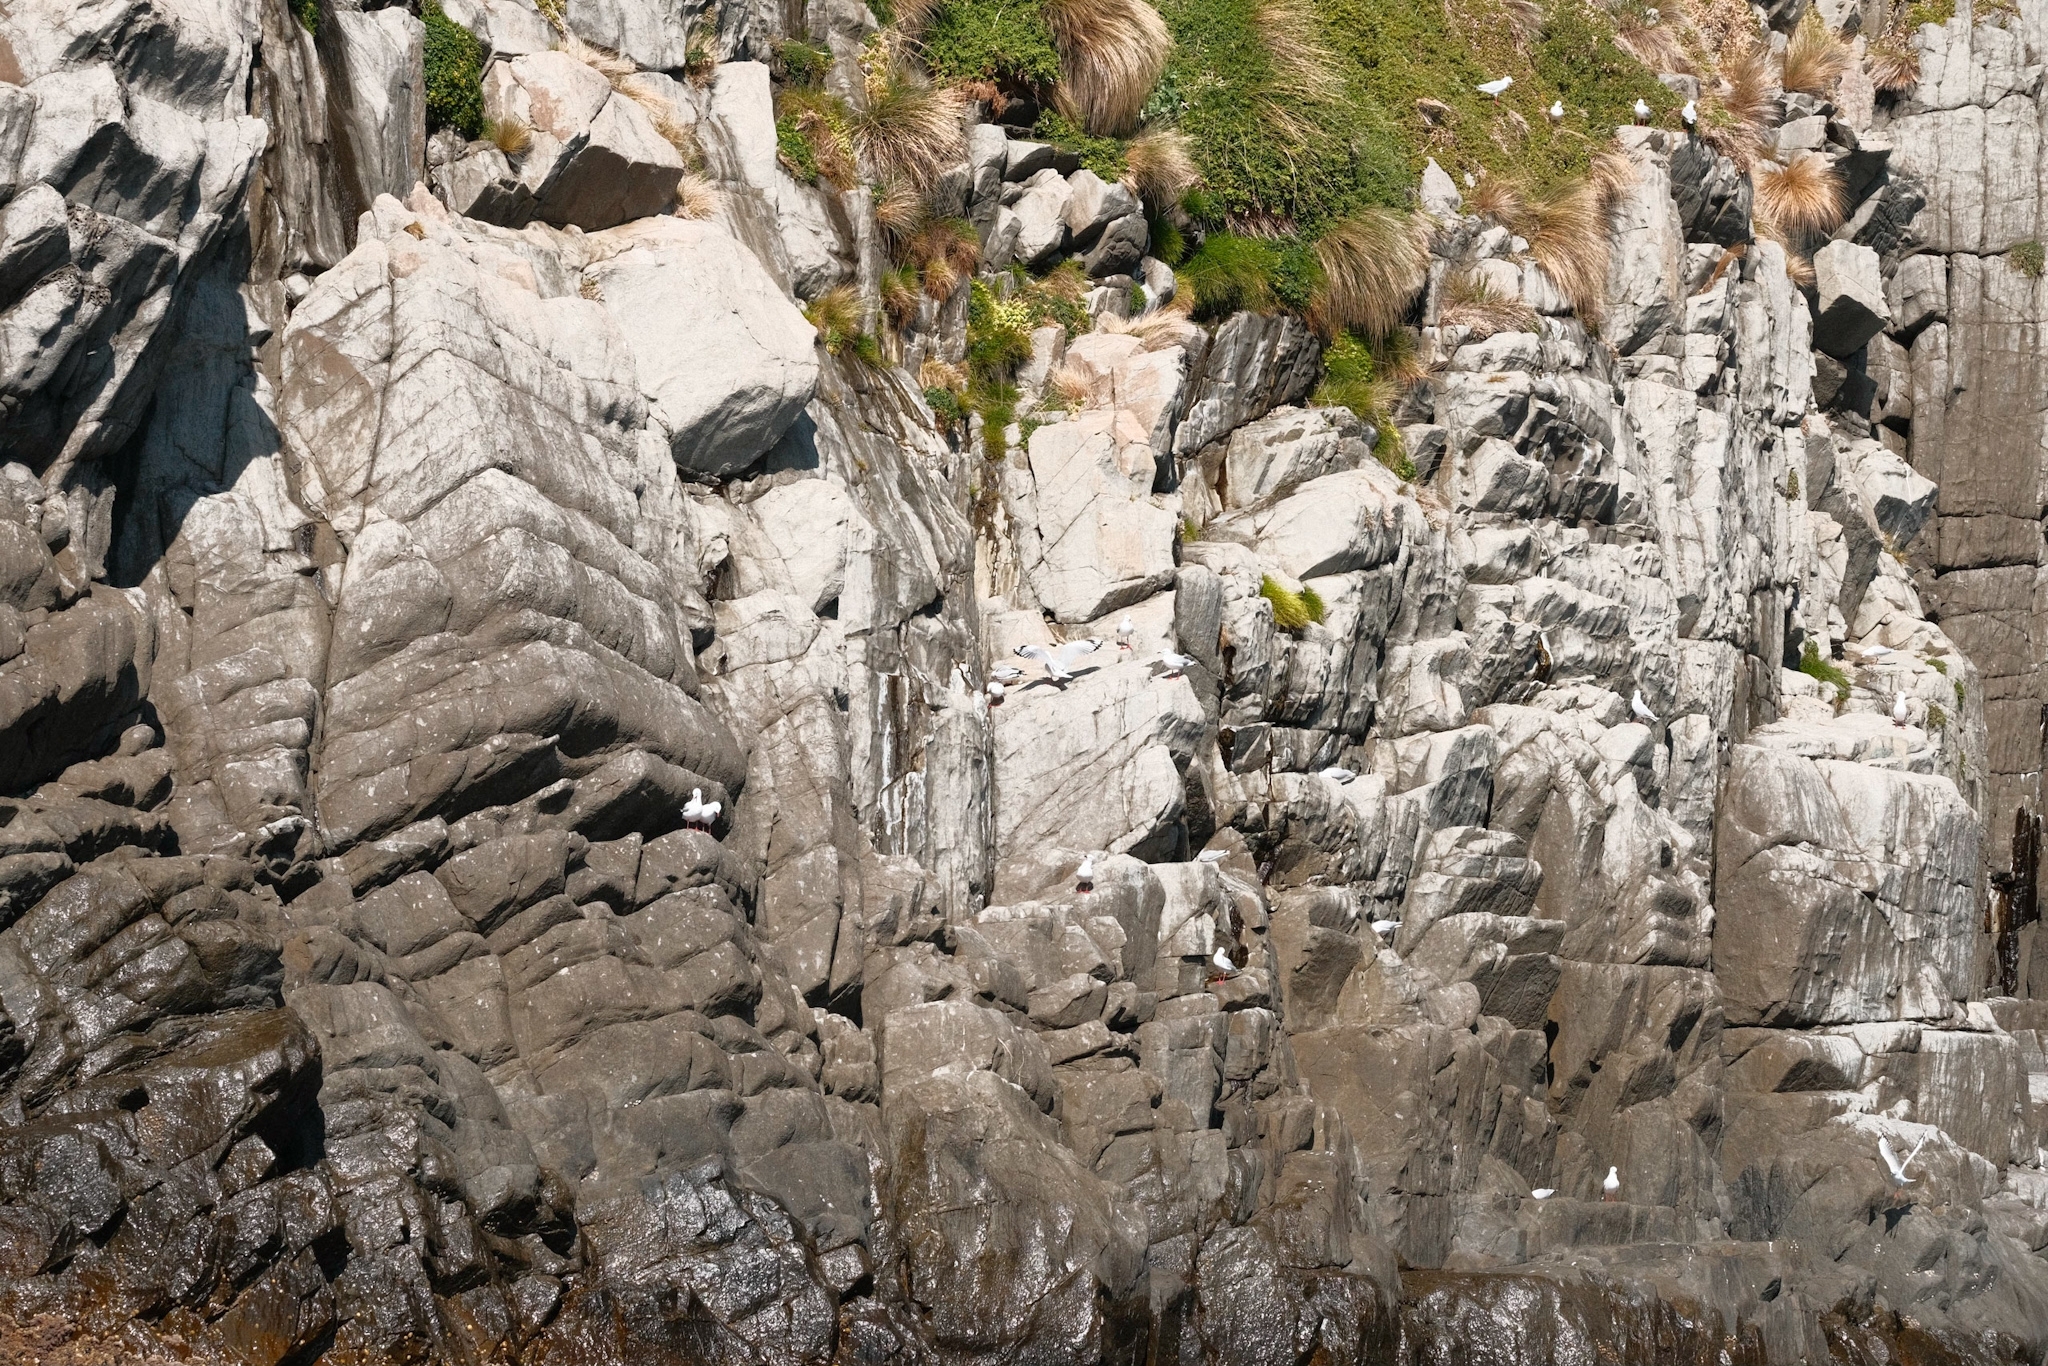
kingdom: Animalia
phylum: Chordata
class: Aves
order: Charadriiformes
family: Laridae
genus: Chroicocephalus
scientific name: Chroicocephalus novaehollandiae
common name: Silver gull
